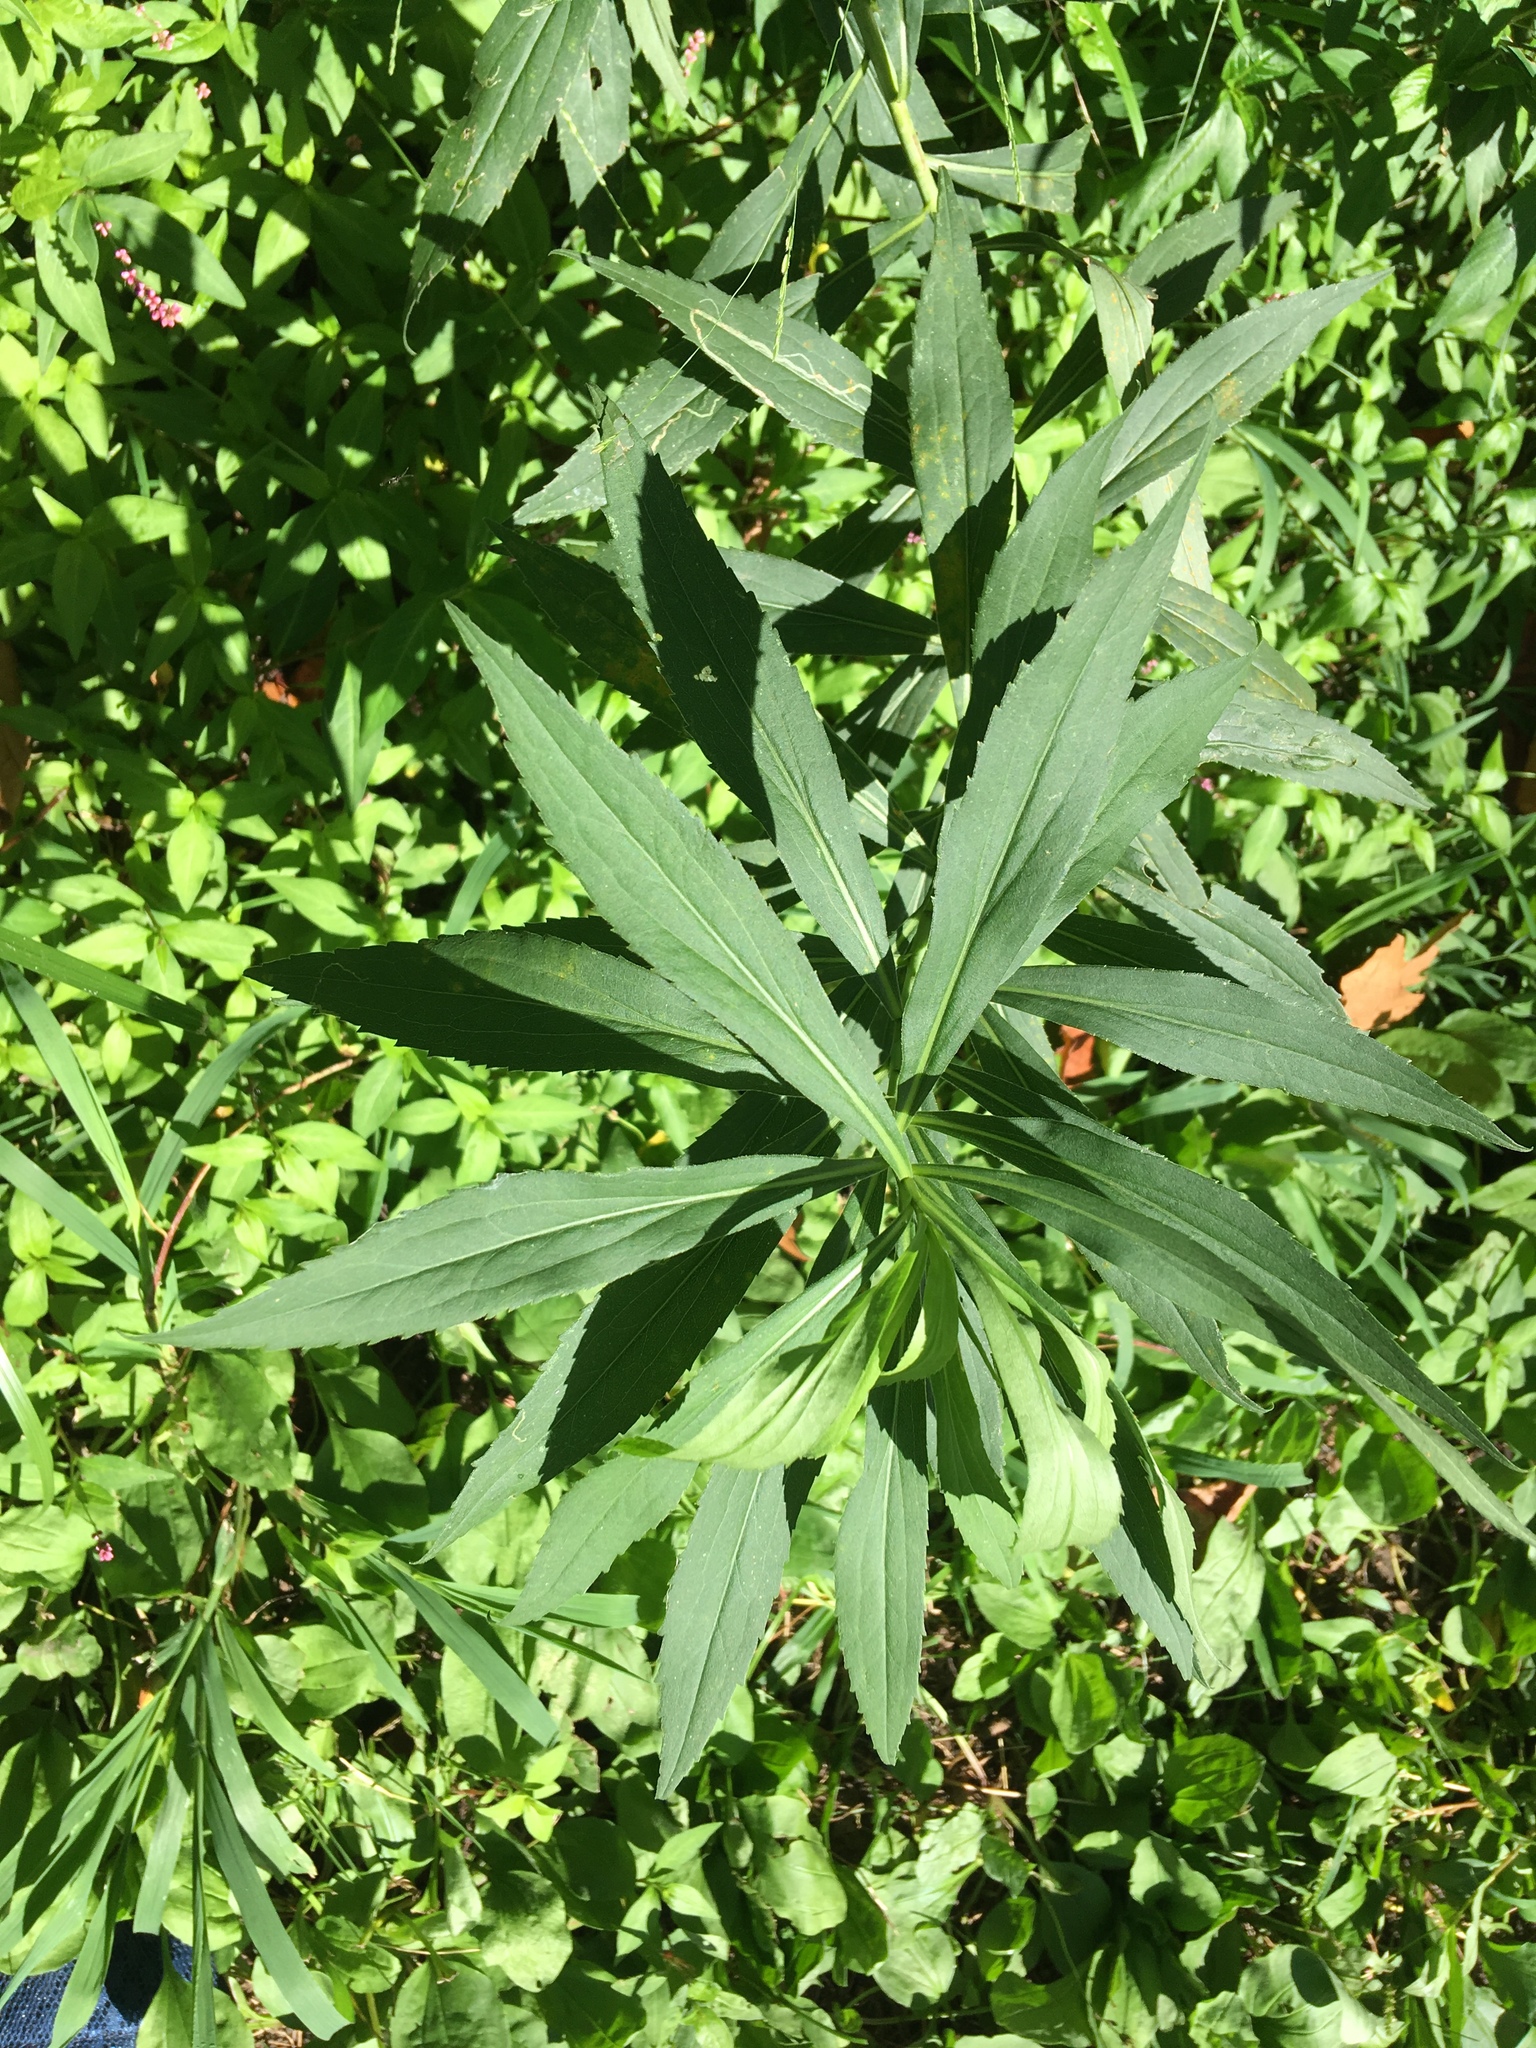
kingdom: Plantae
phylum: Tracheophyta
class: Magnoliopsida
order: Asterales
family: Asteraceae
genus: Solidago
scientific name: Solidago gigantea
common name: Giant goldenrod
